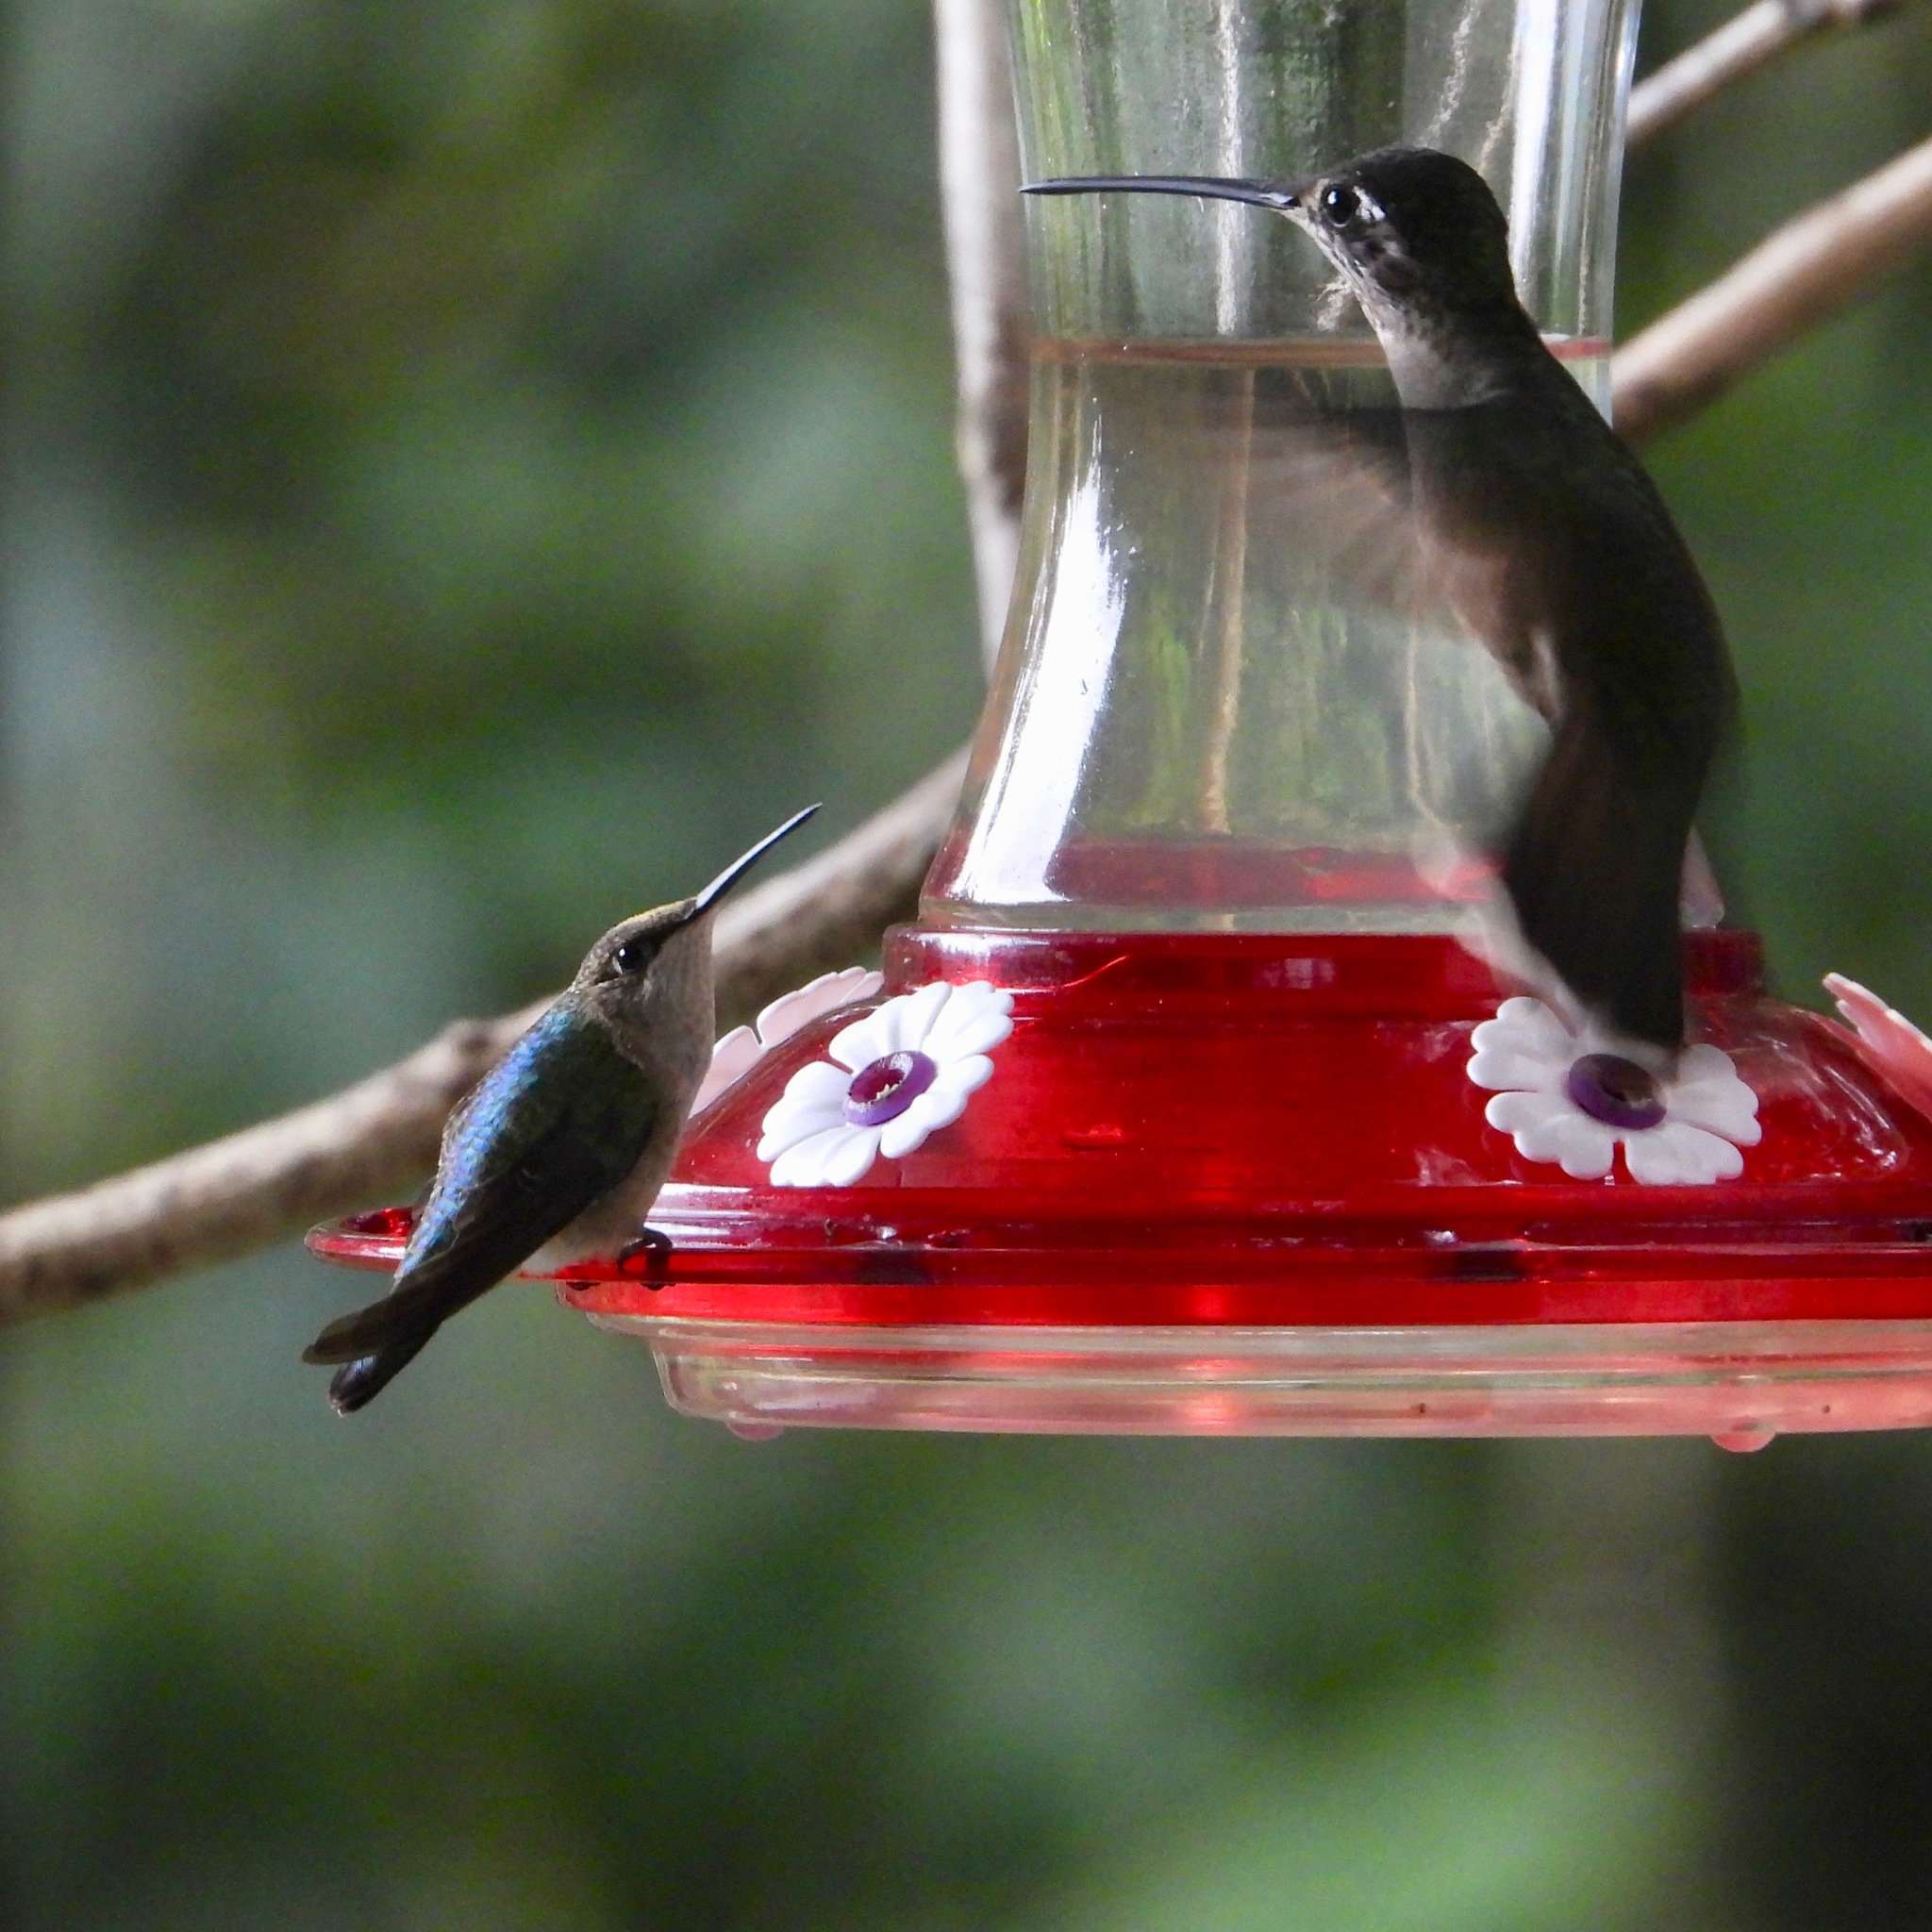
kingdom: Animalia
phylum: Chordata
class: Aves
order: Apodiformes
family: Trochilidae
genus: Archilochus
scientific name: Archilochus colubris
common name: Ruby-throated hummingbird
